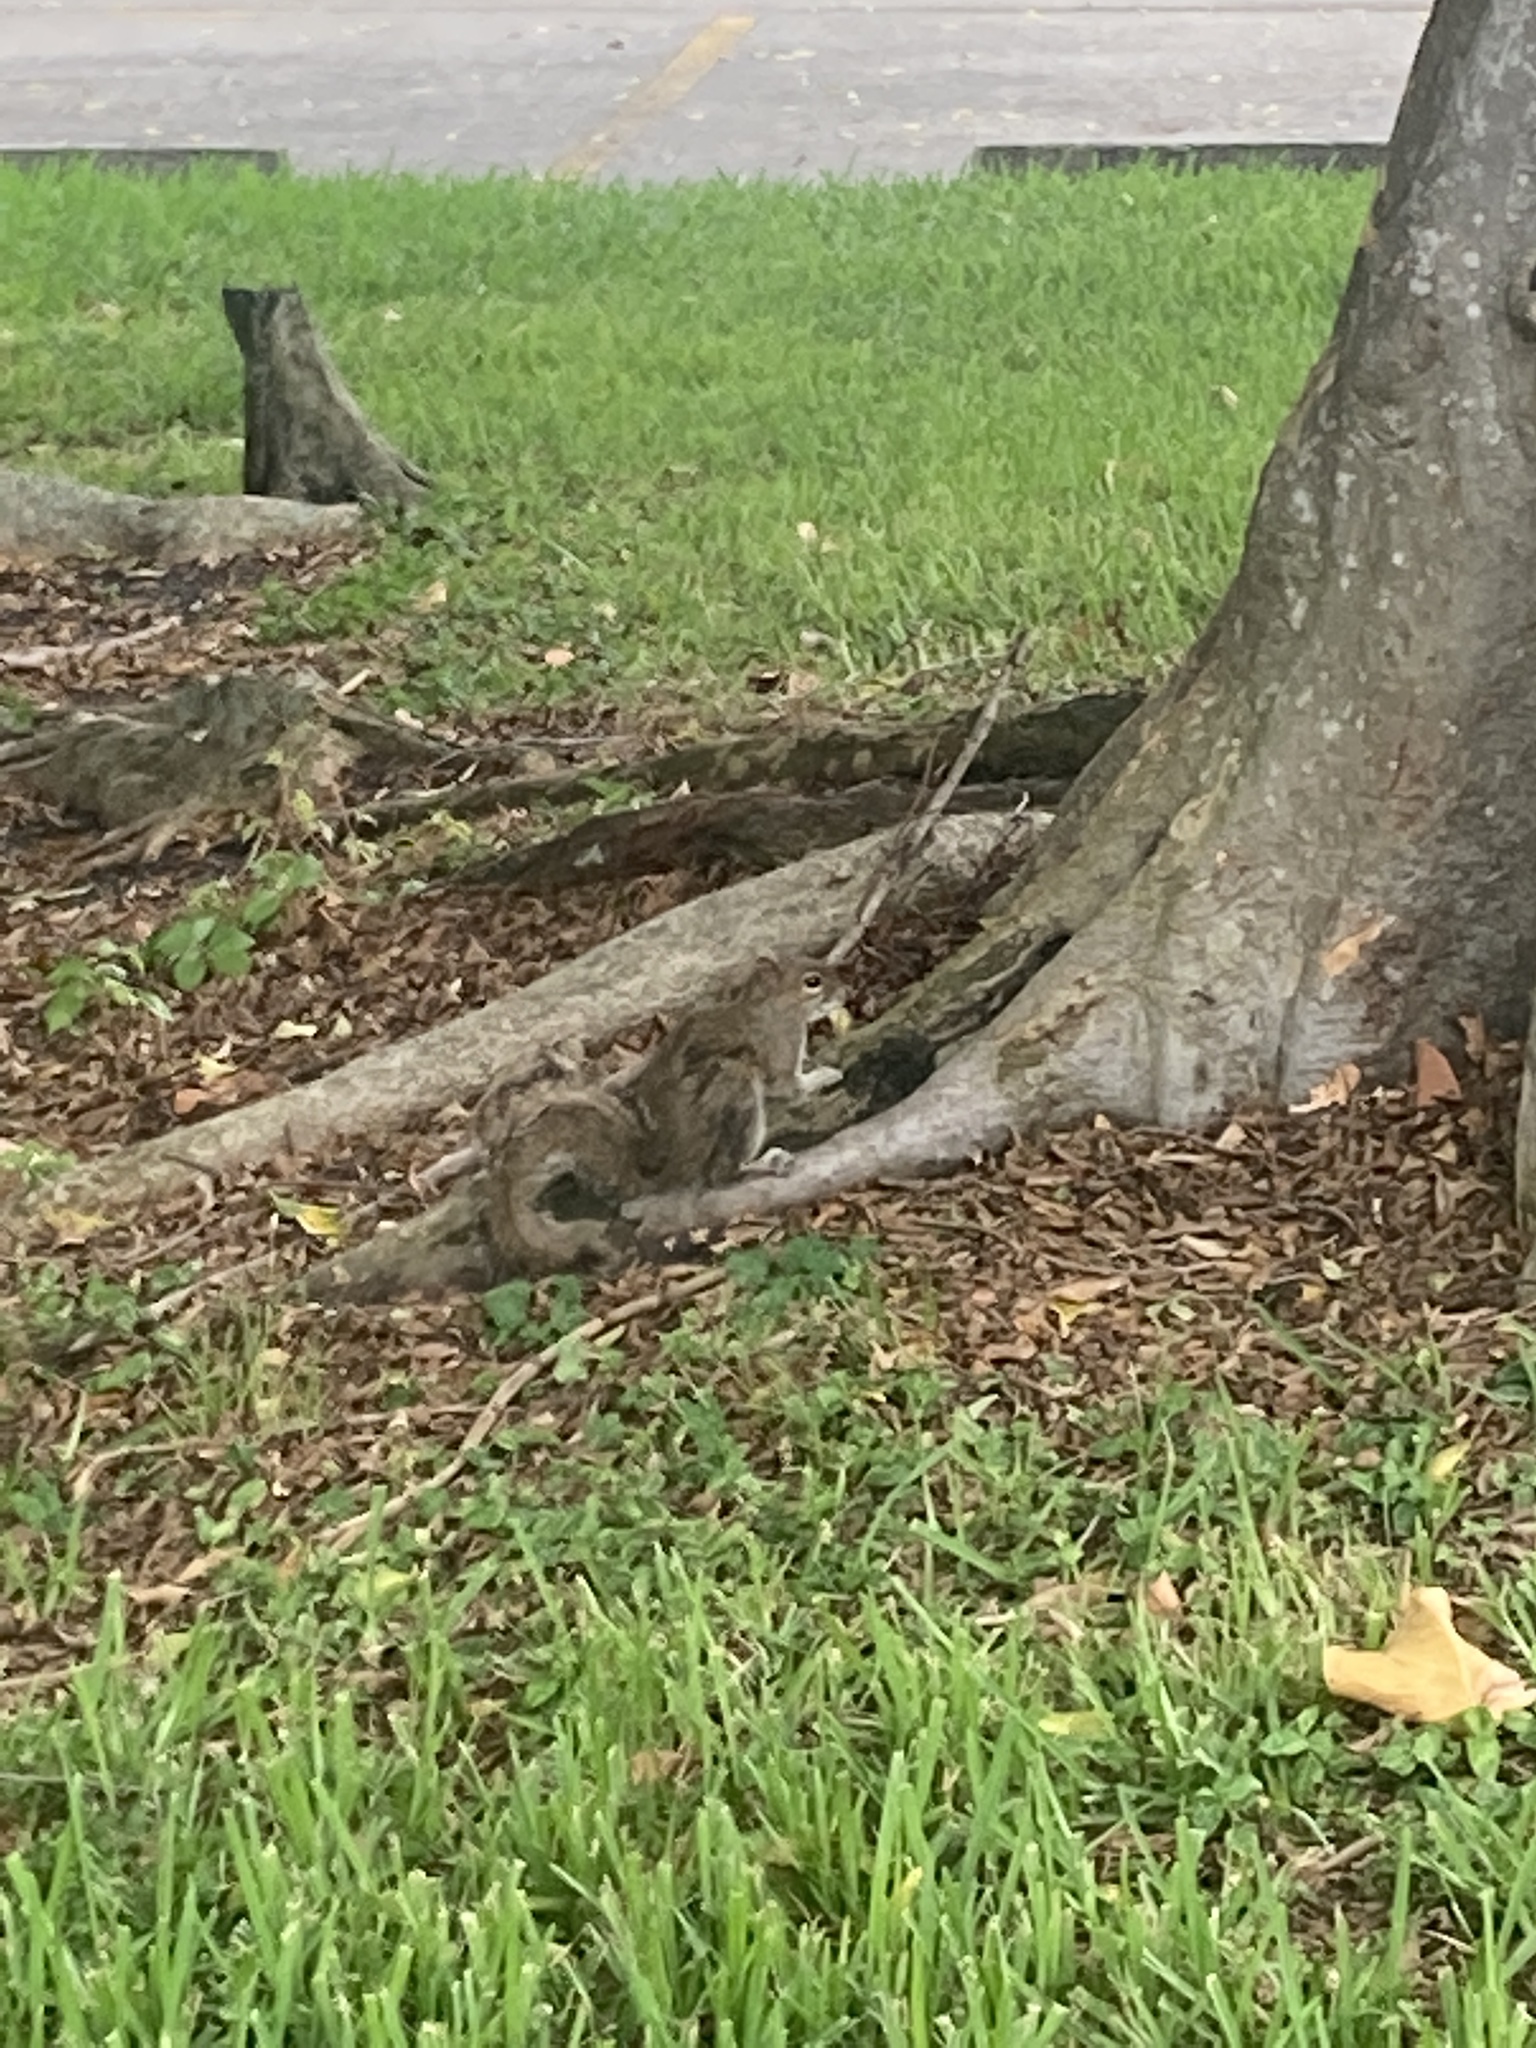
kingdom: Animalia
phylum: Chordata
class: Mammalia
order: Rodentia
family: Sciuridae
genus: Sciurus
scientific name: Sciurus carolinensis
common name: Eastern gray squirrel
